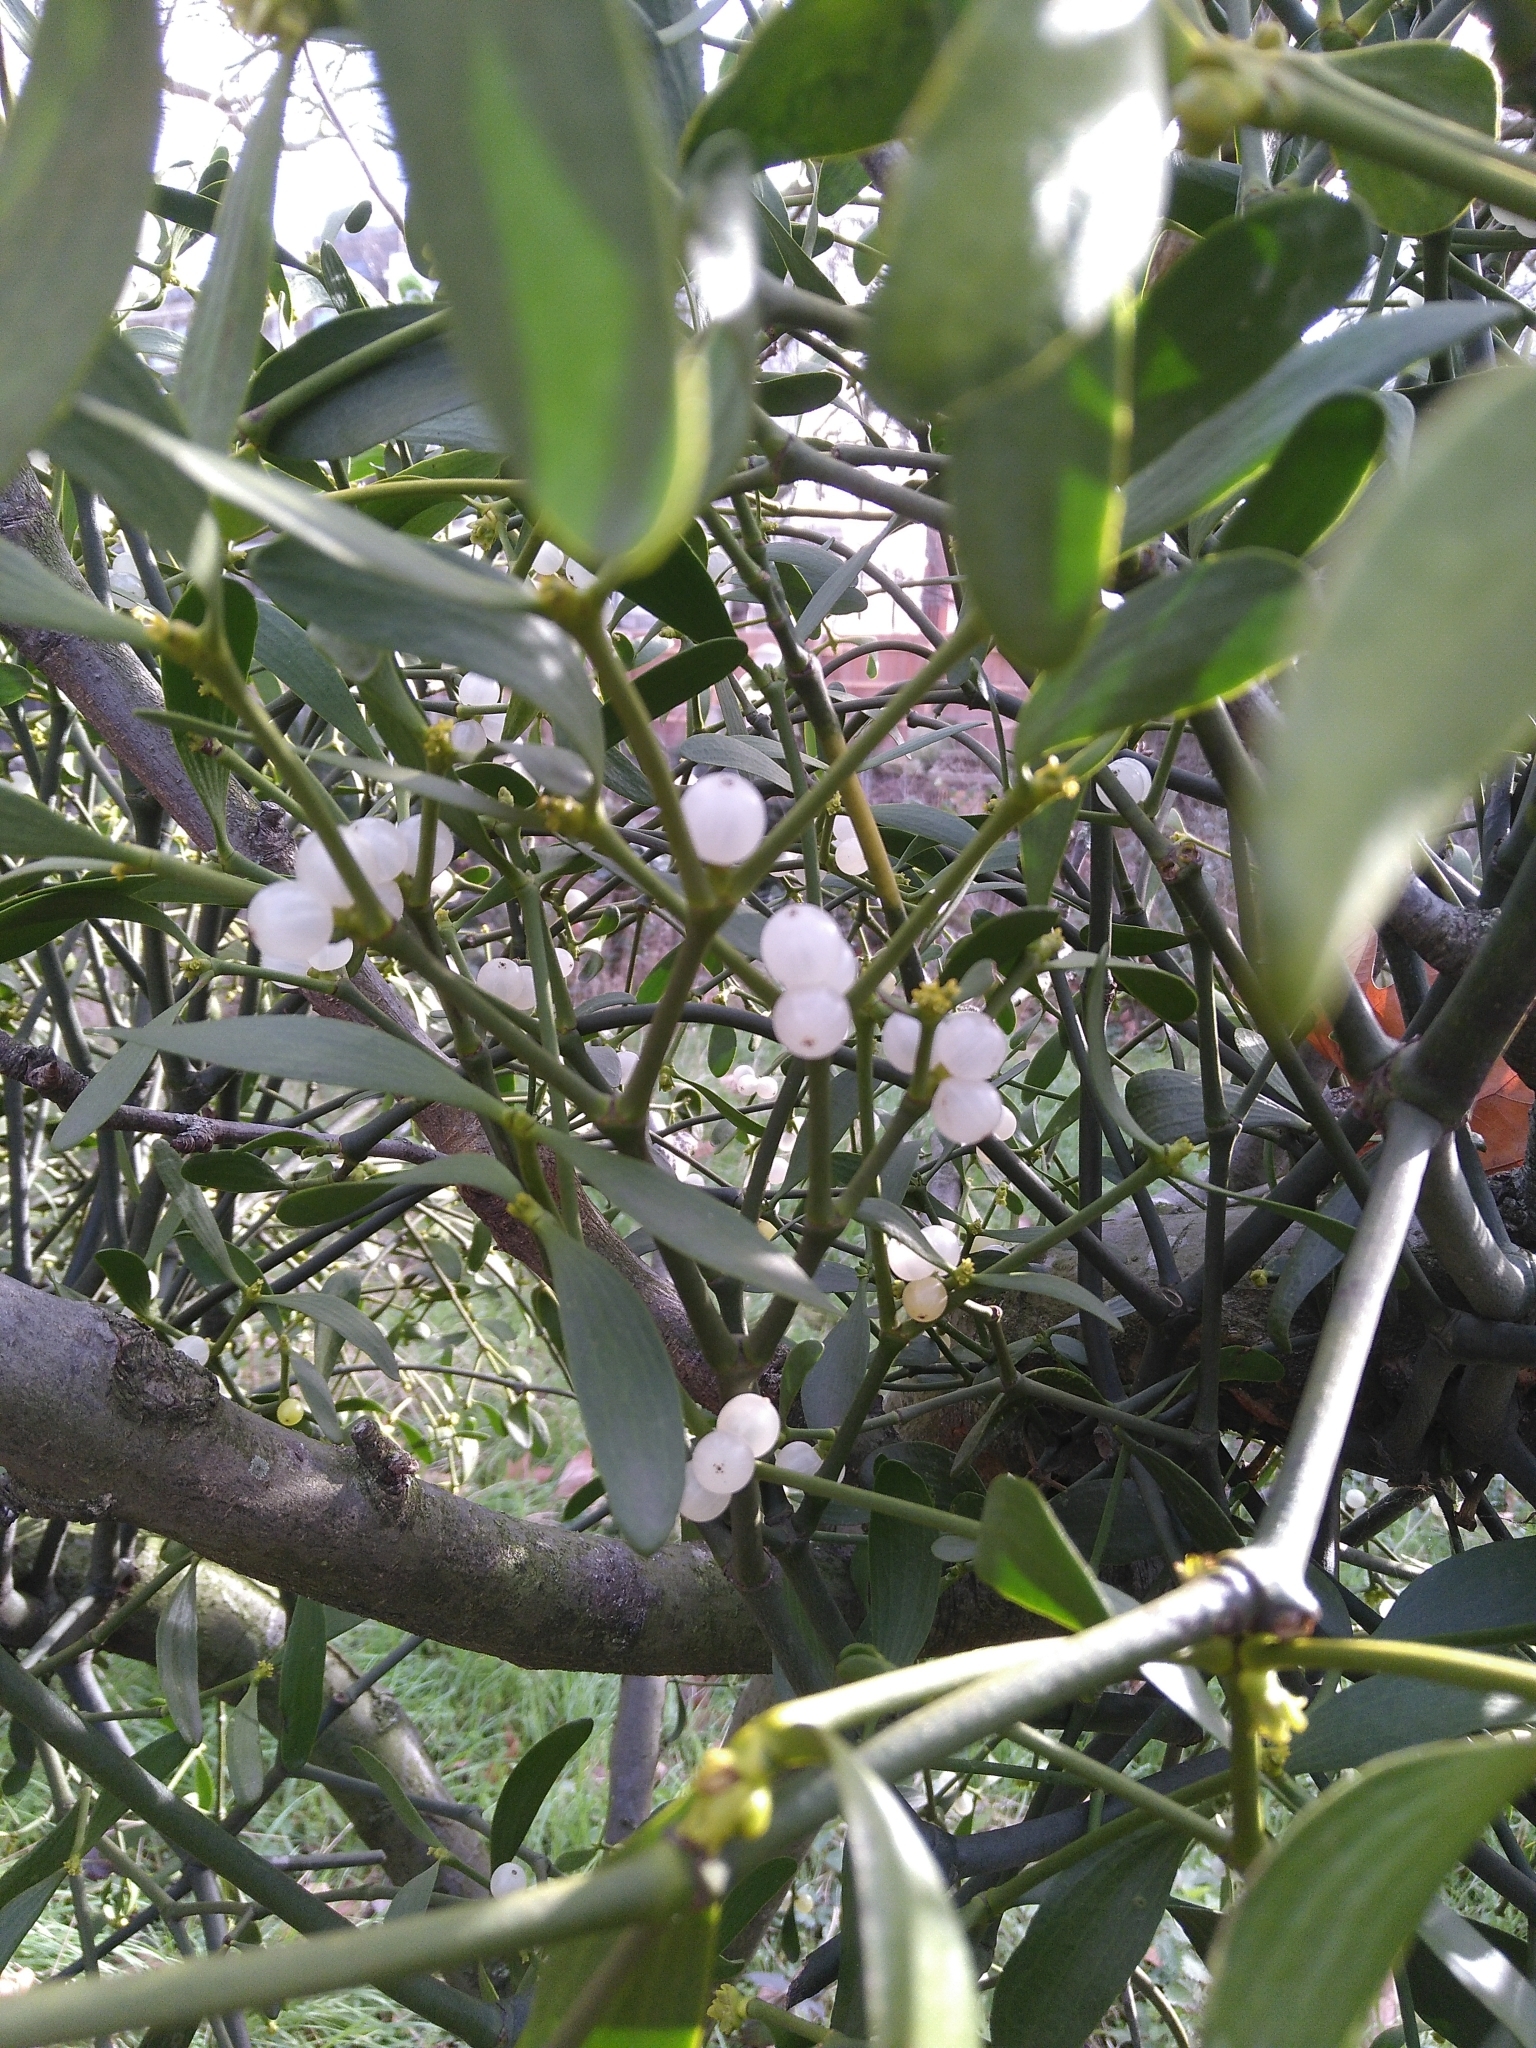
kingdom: Plantae
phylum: Tracheophyta
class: Magnoliopsida
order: Santalales
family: Viscaceae
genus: Viscum
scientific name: Viscum album
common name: Mistletoe
